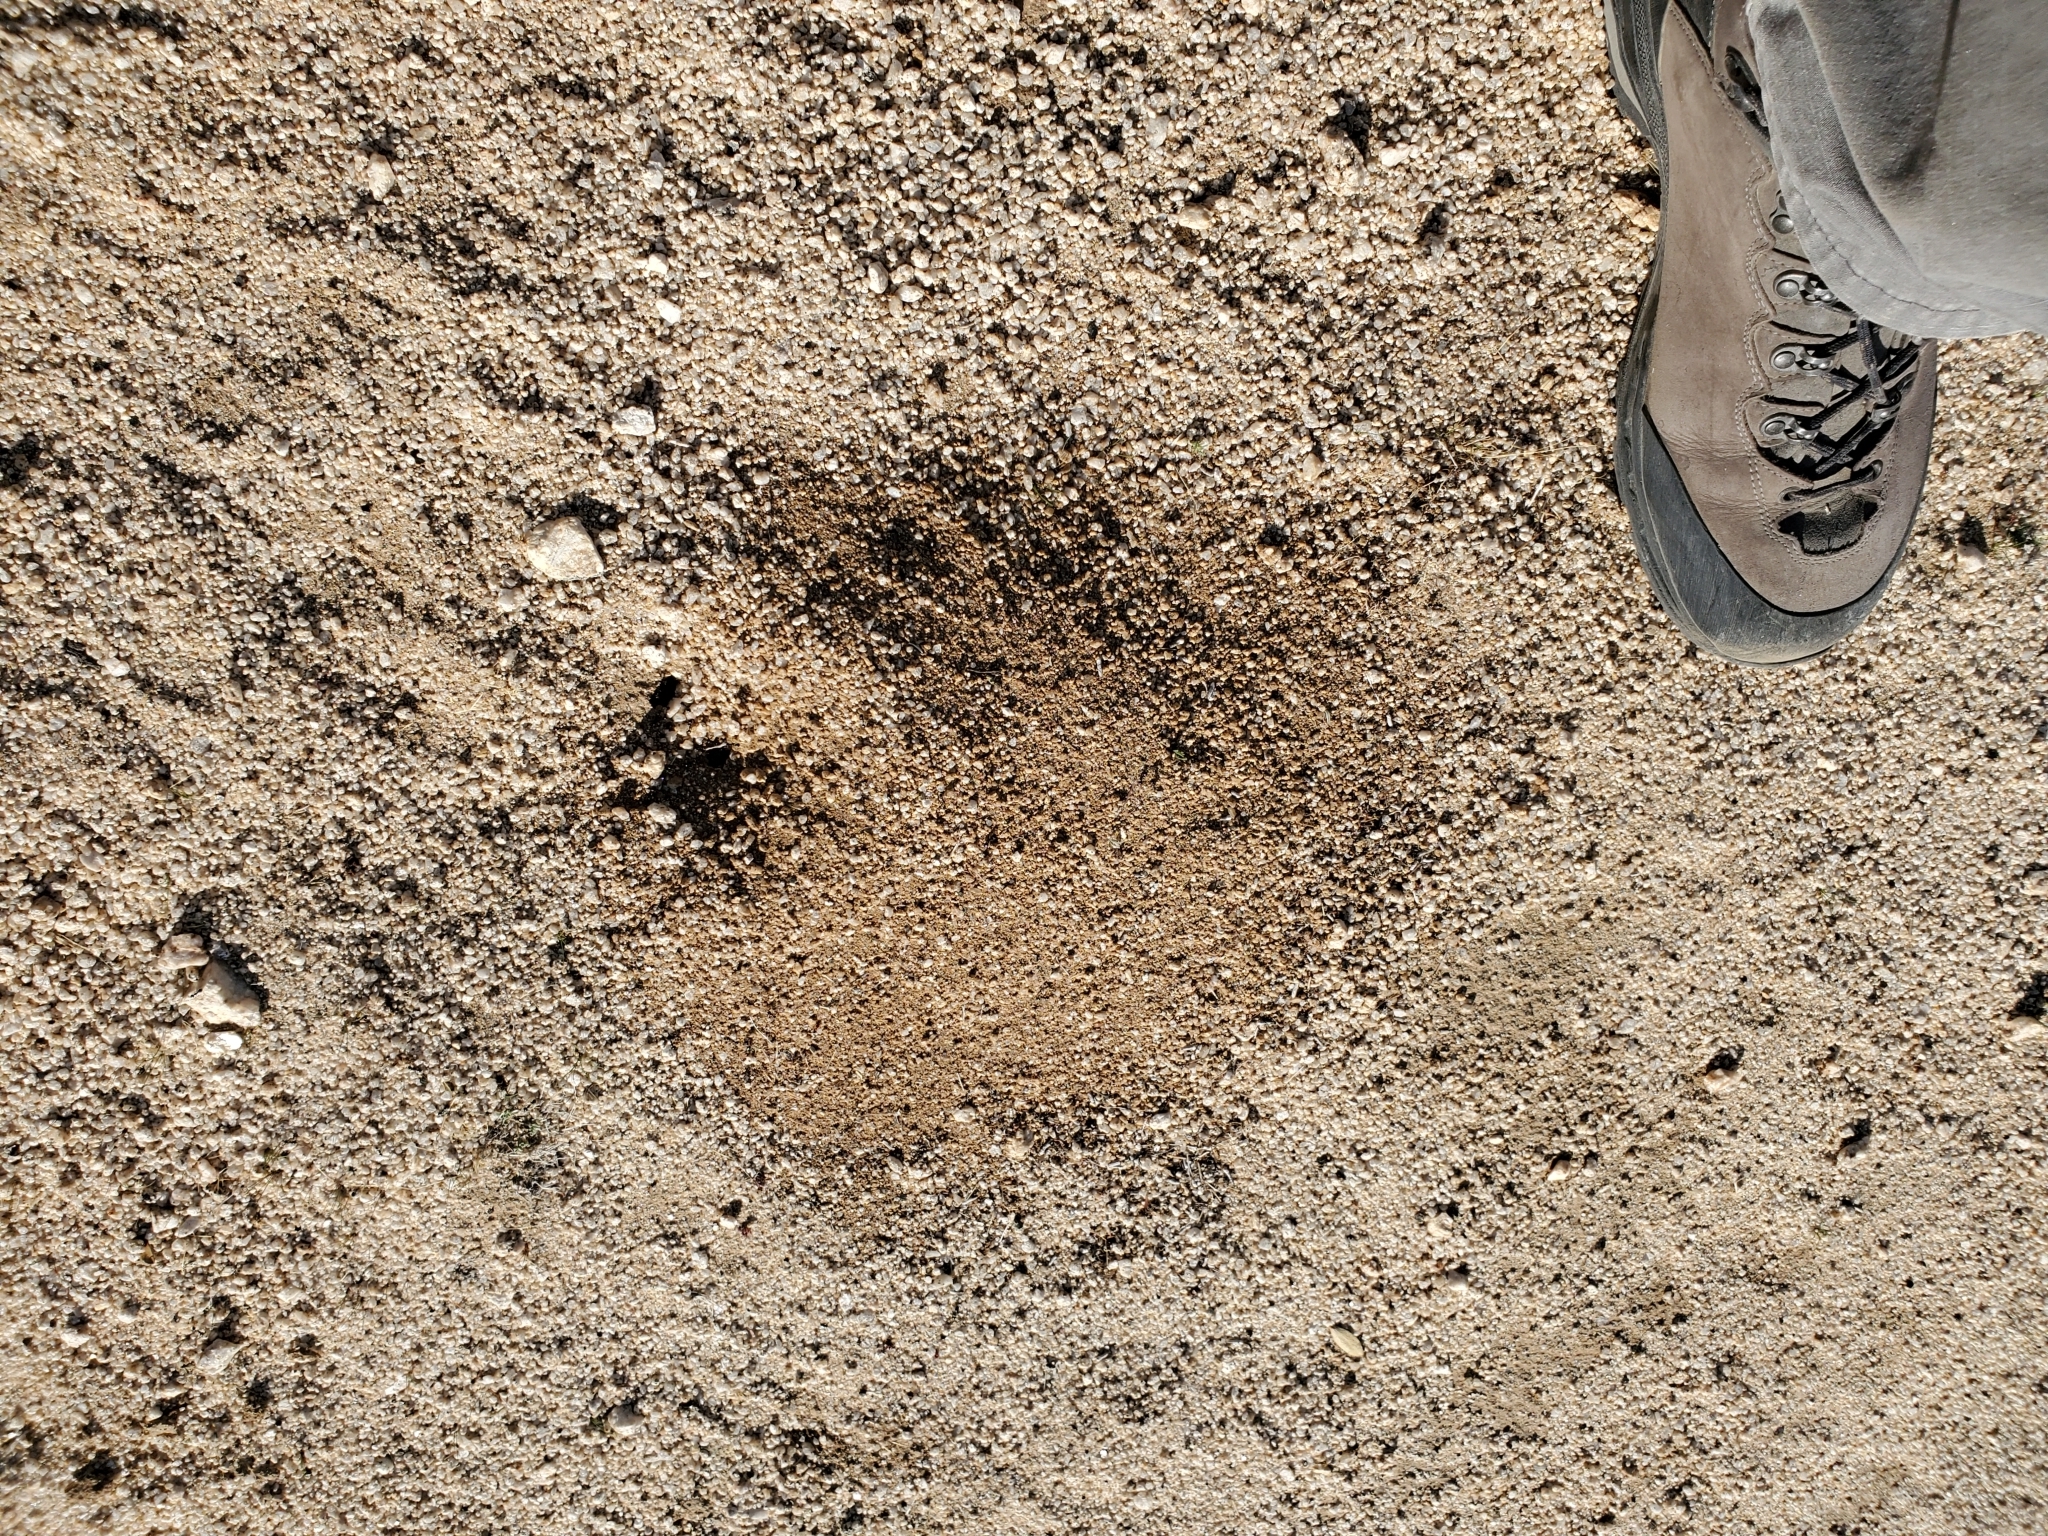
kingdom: Animalia
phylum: Arthropoda
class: Insecta
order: Hymenoptera
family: Formicidae
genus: Messor
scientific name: Messor pergandei
